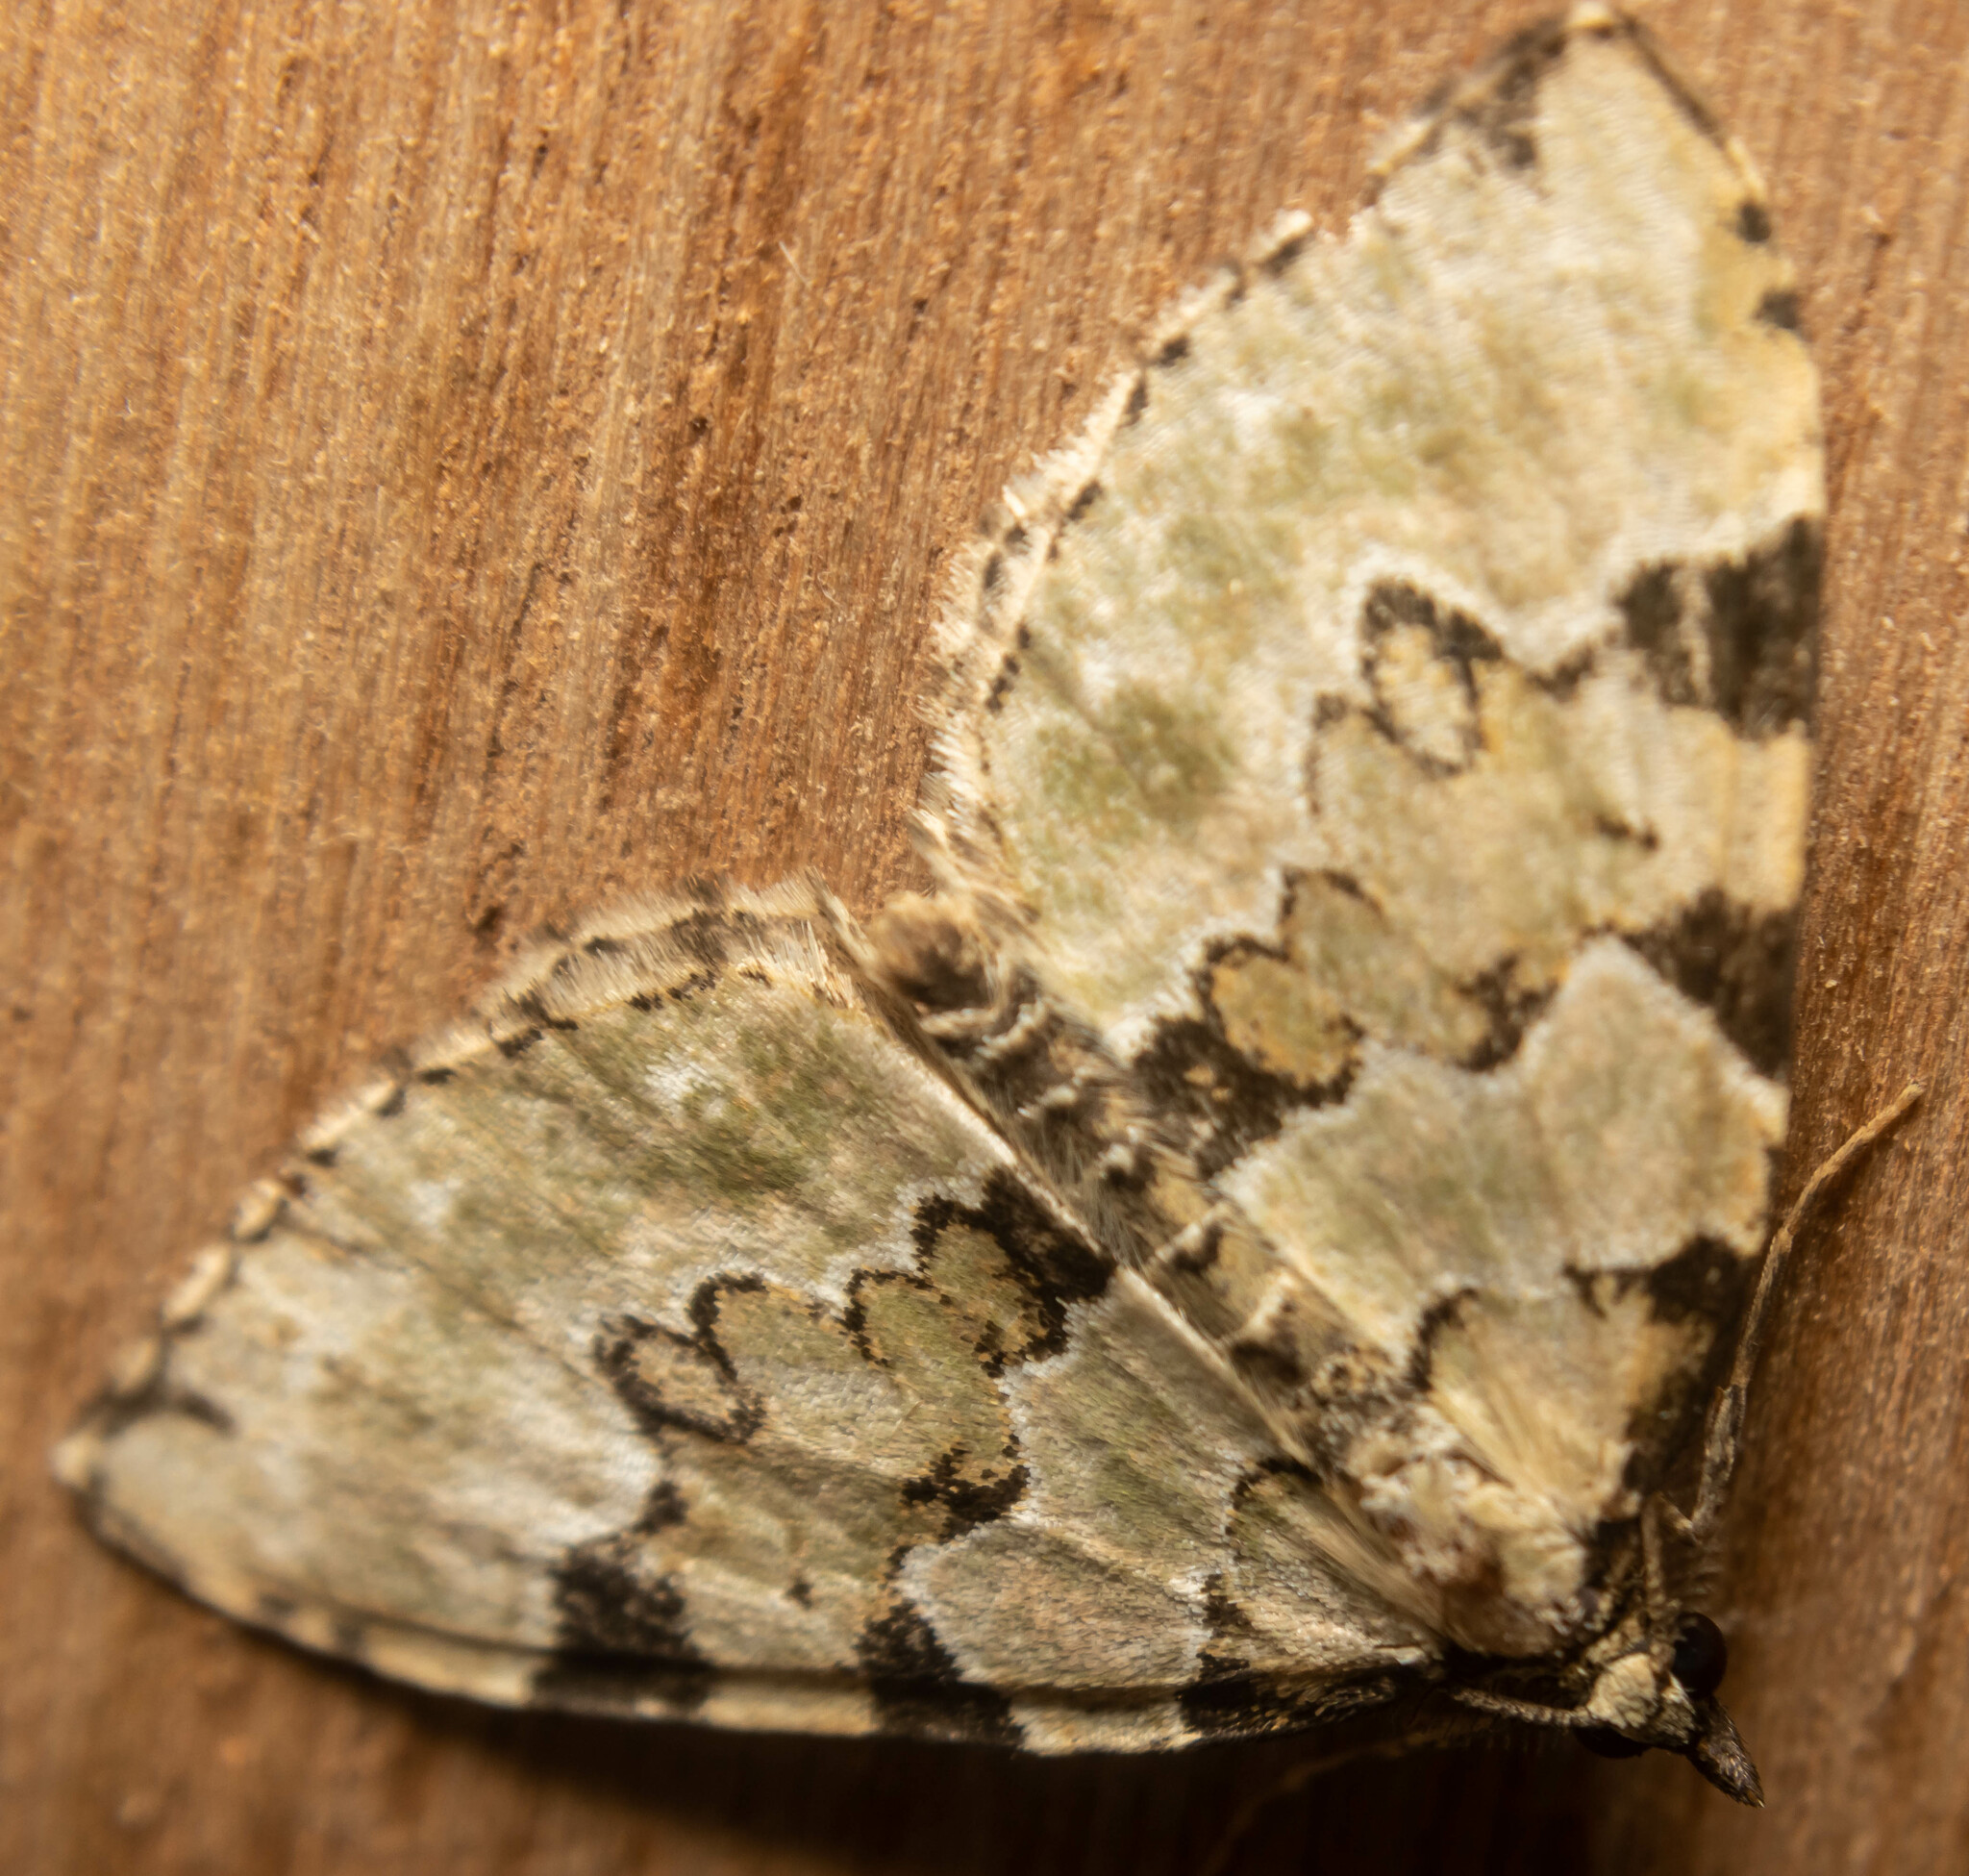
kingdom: Animalia
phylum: Arthropoda
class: Insecta
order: Lepidoptera
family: Geometridae
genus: Colostygia
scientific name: Colostygia pectinataria
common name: Green carpet
